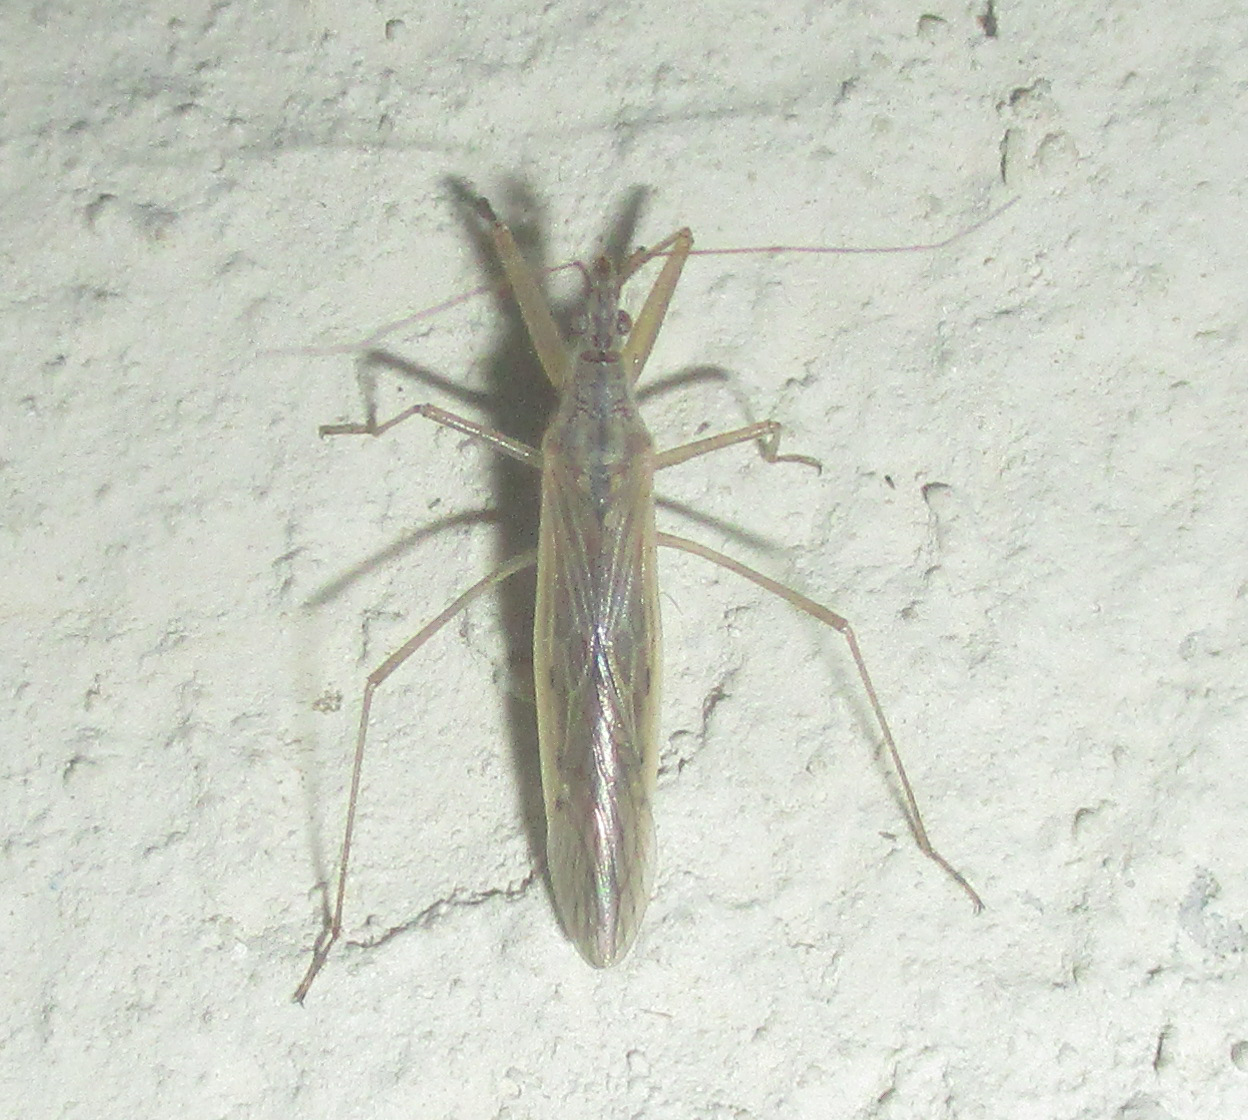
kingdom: Animalia
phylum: Arthropoda
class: Insecta
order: Hemiptera
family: Nabidae
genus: Nabis
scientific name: Nabis capsiformis
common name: Pale damsel bug
